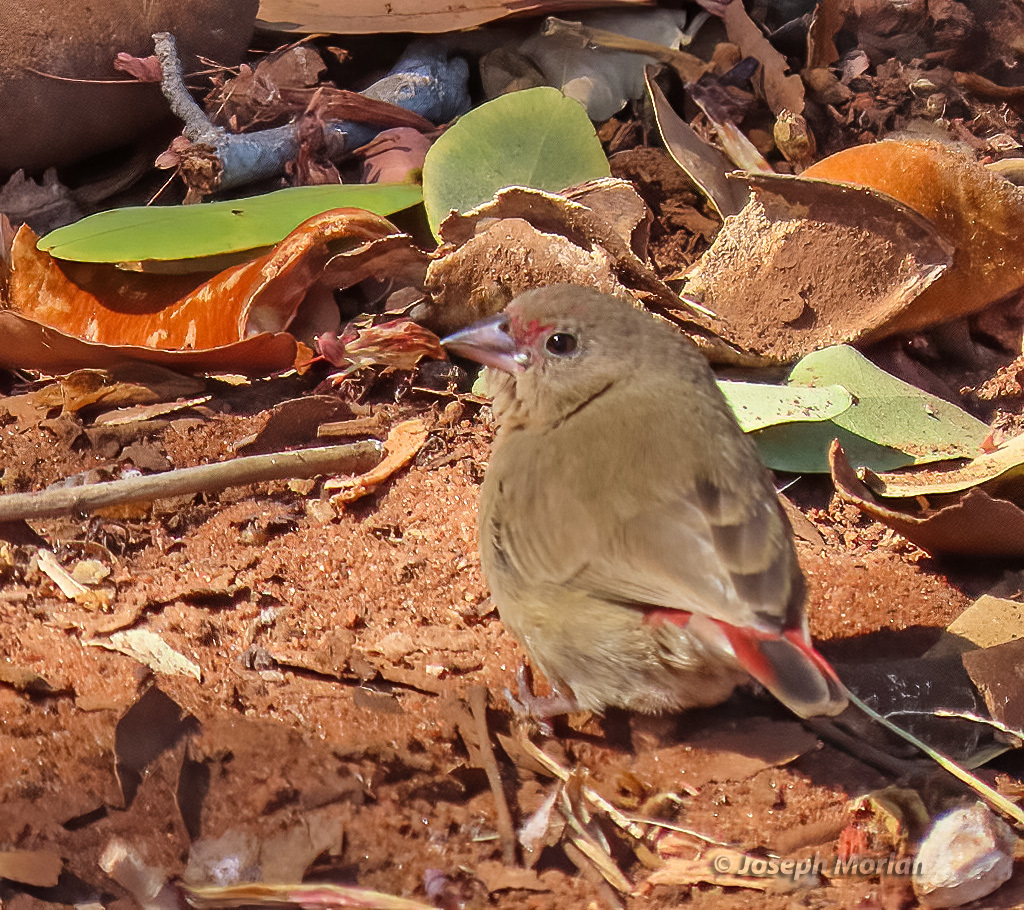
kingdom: Animalia
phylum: Chordata
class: Aves
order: Passeriformes
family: Estrildidae
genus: Lagonosticta
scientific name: Lagonosticta senegala
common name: Red-billed firefinch
